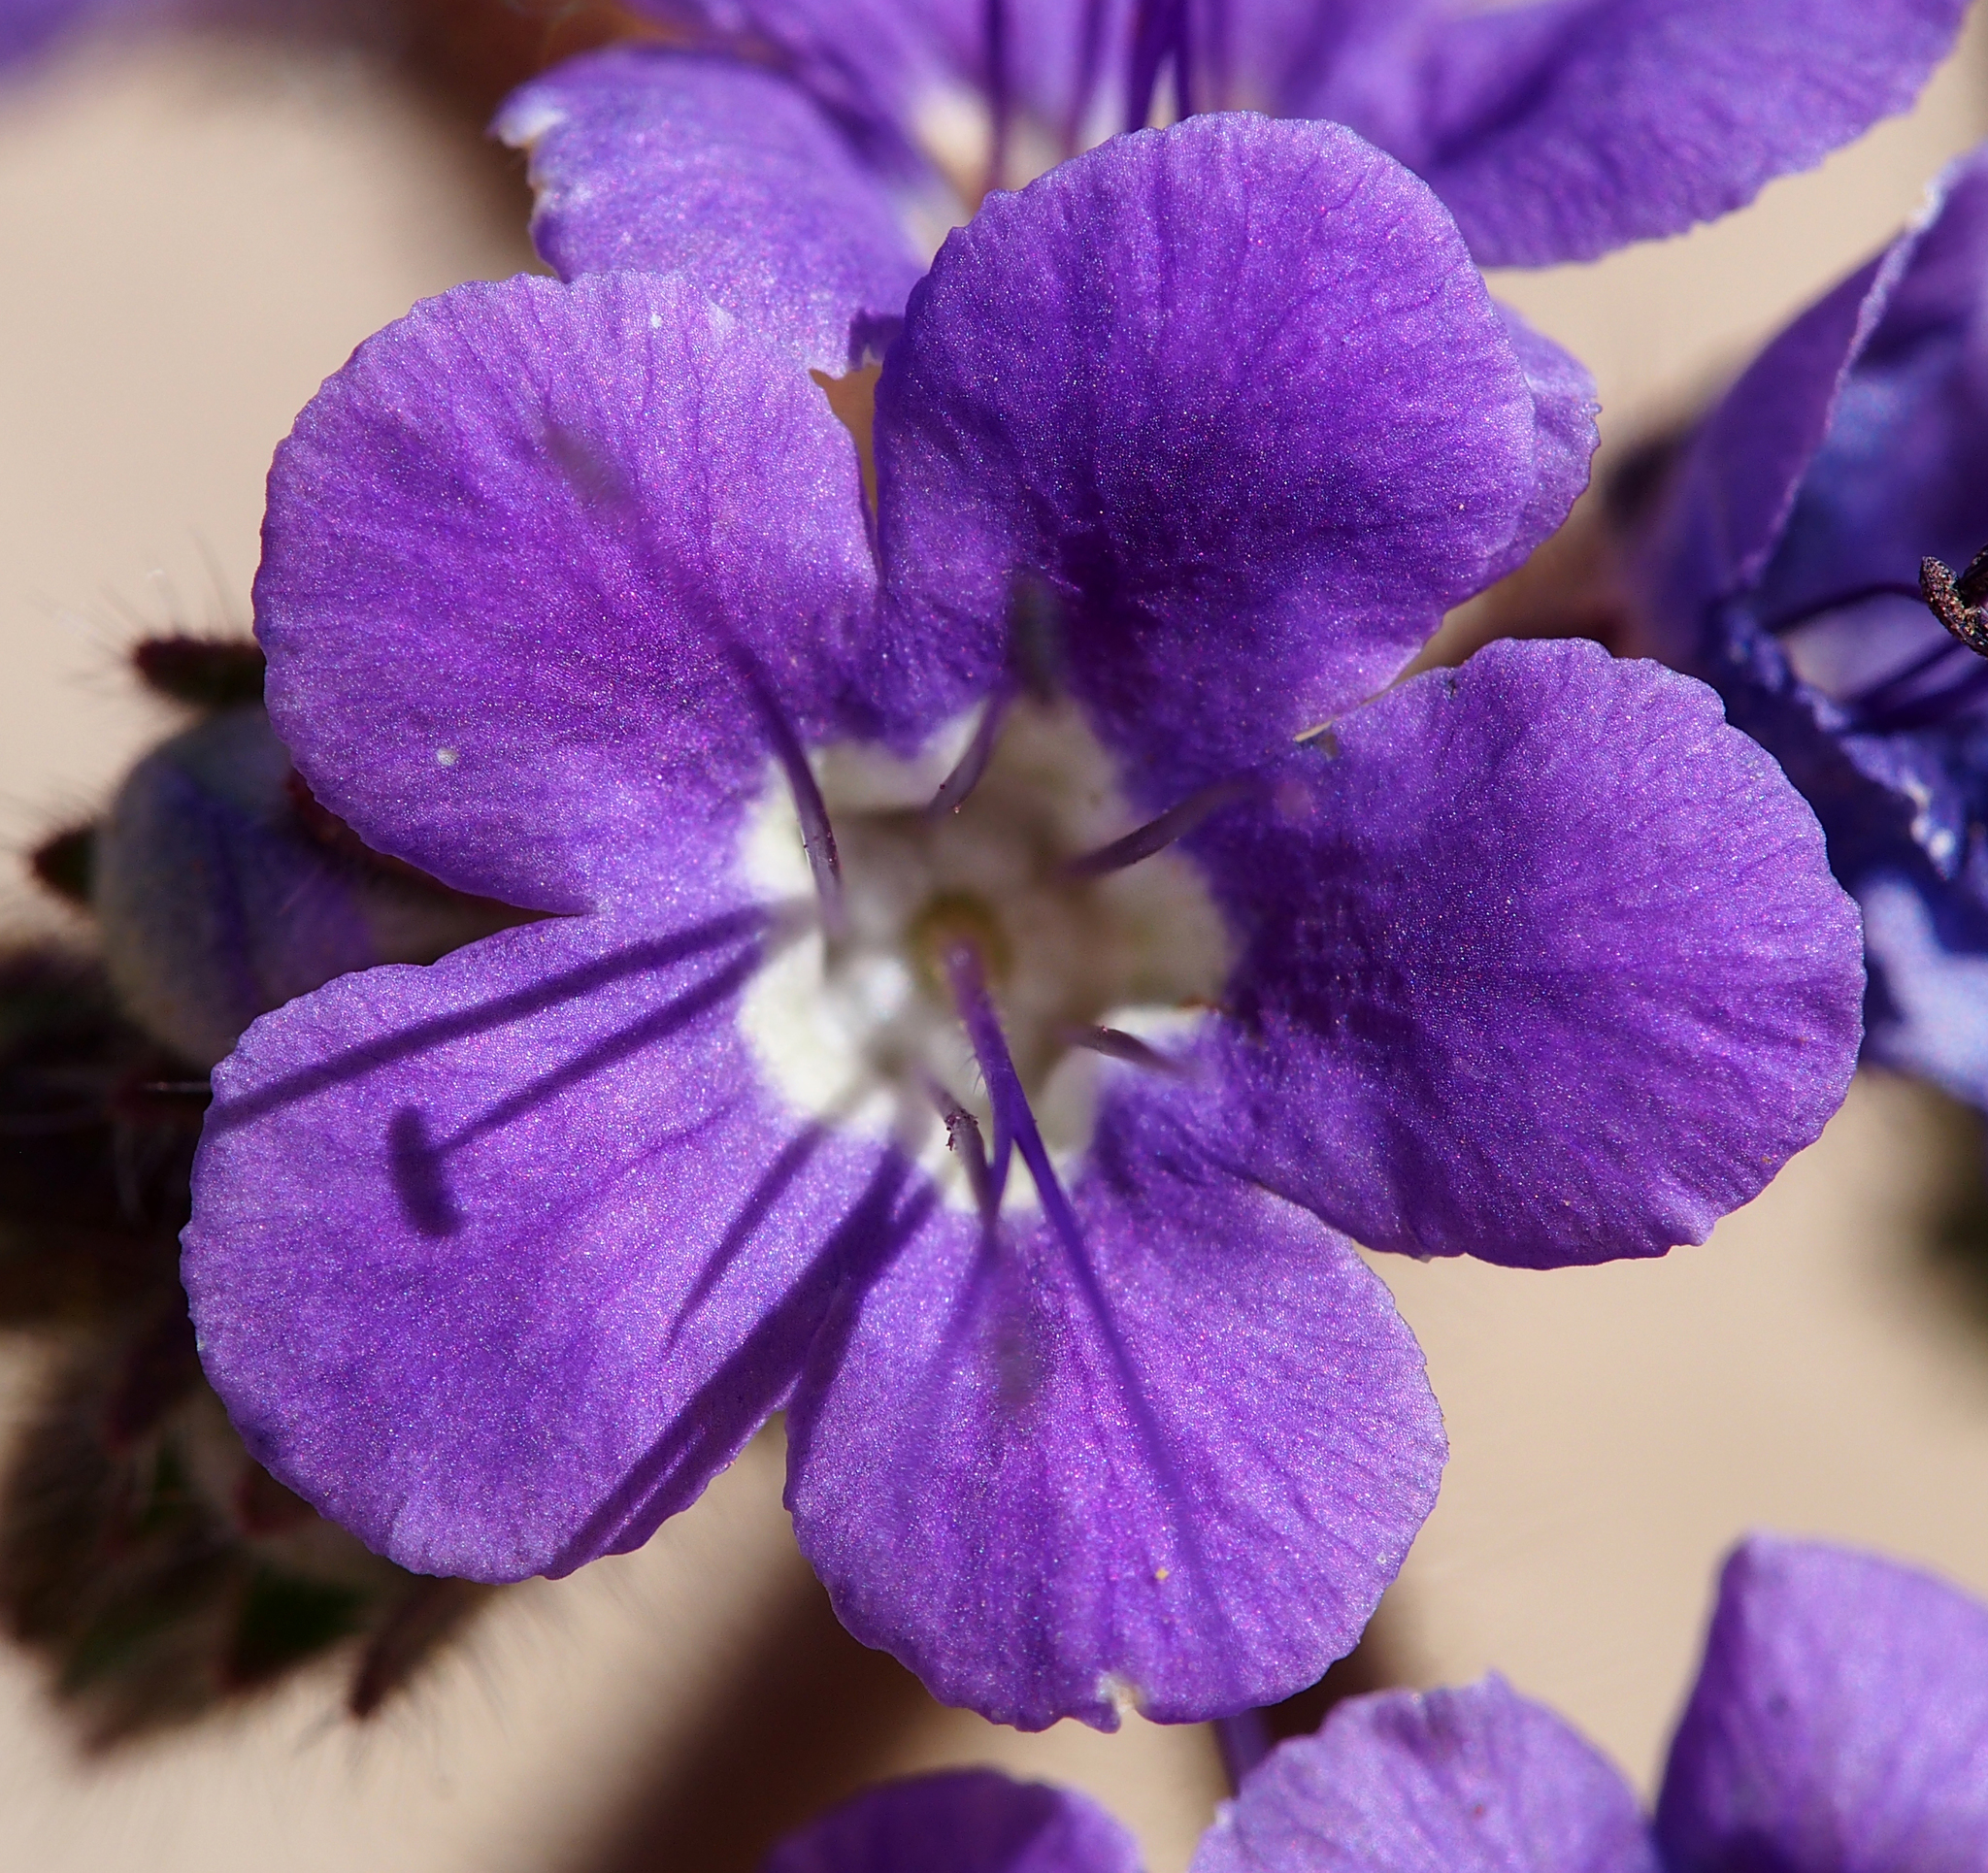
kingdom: Plantae
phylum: Tracheophyta
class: Magnoliopsida
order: Boraginales
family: Hydrophyllaceae
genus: Phacelia
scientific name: Phacelia crenulata
